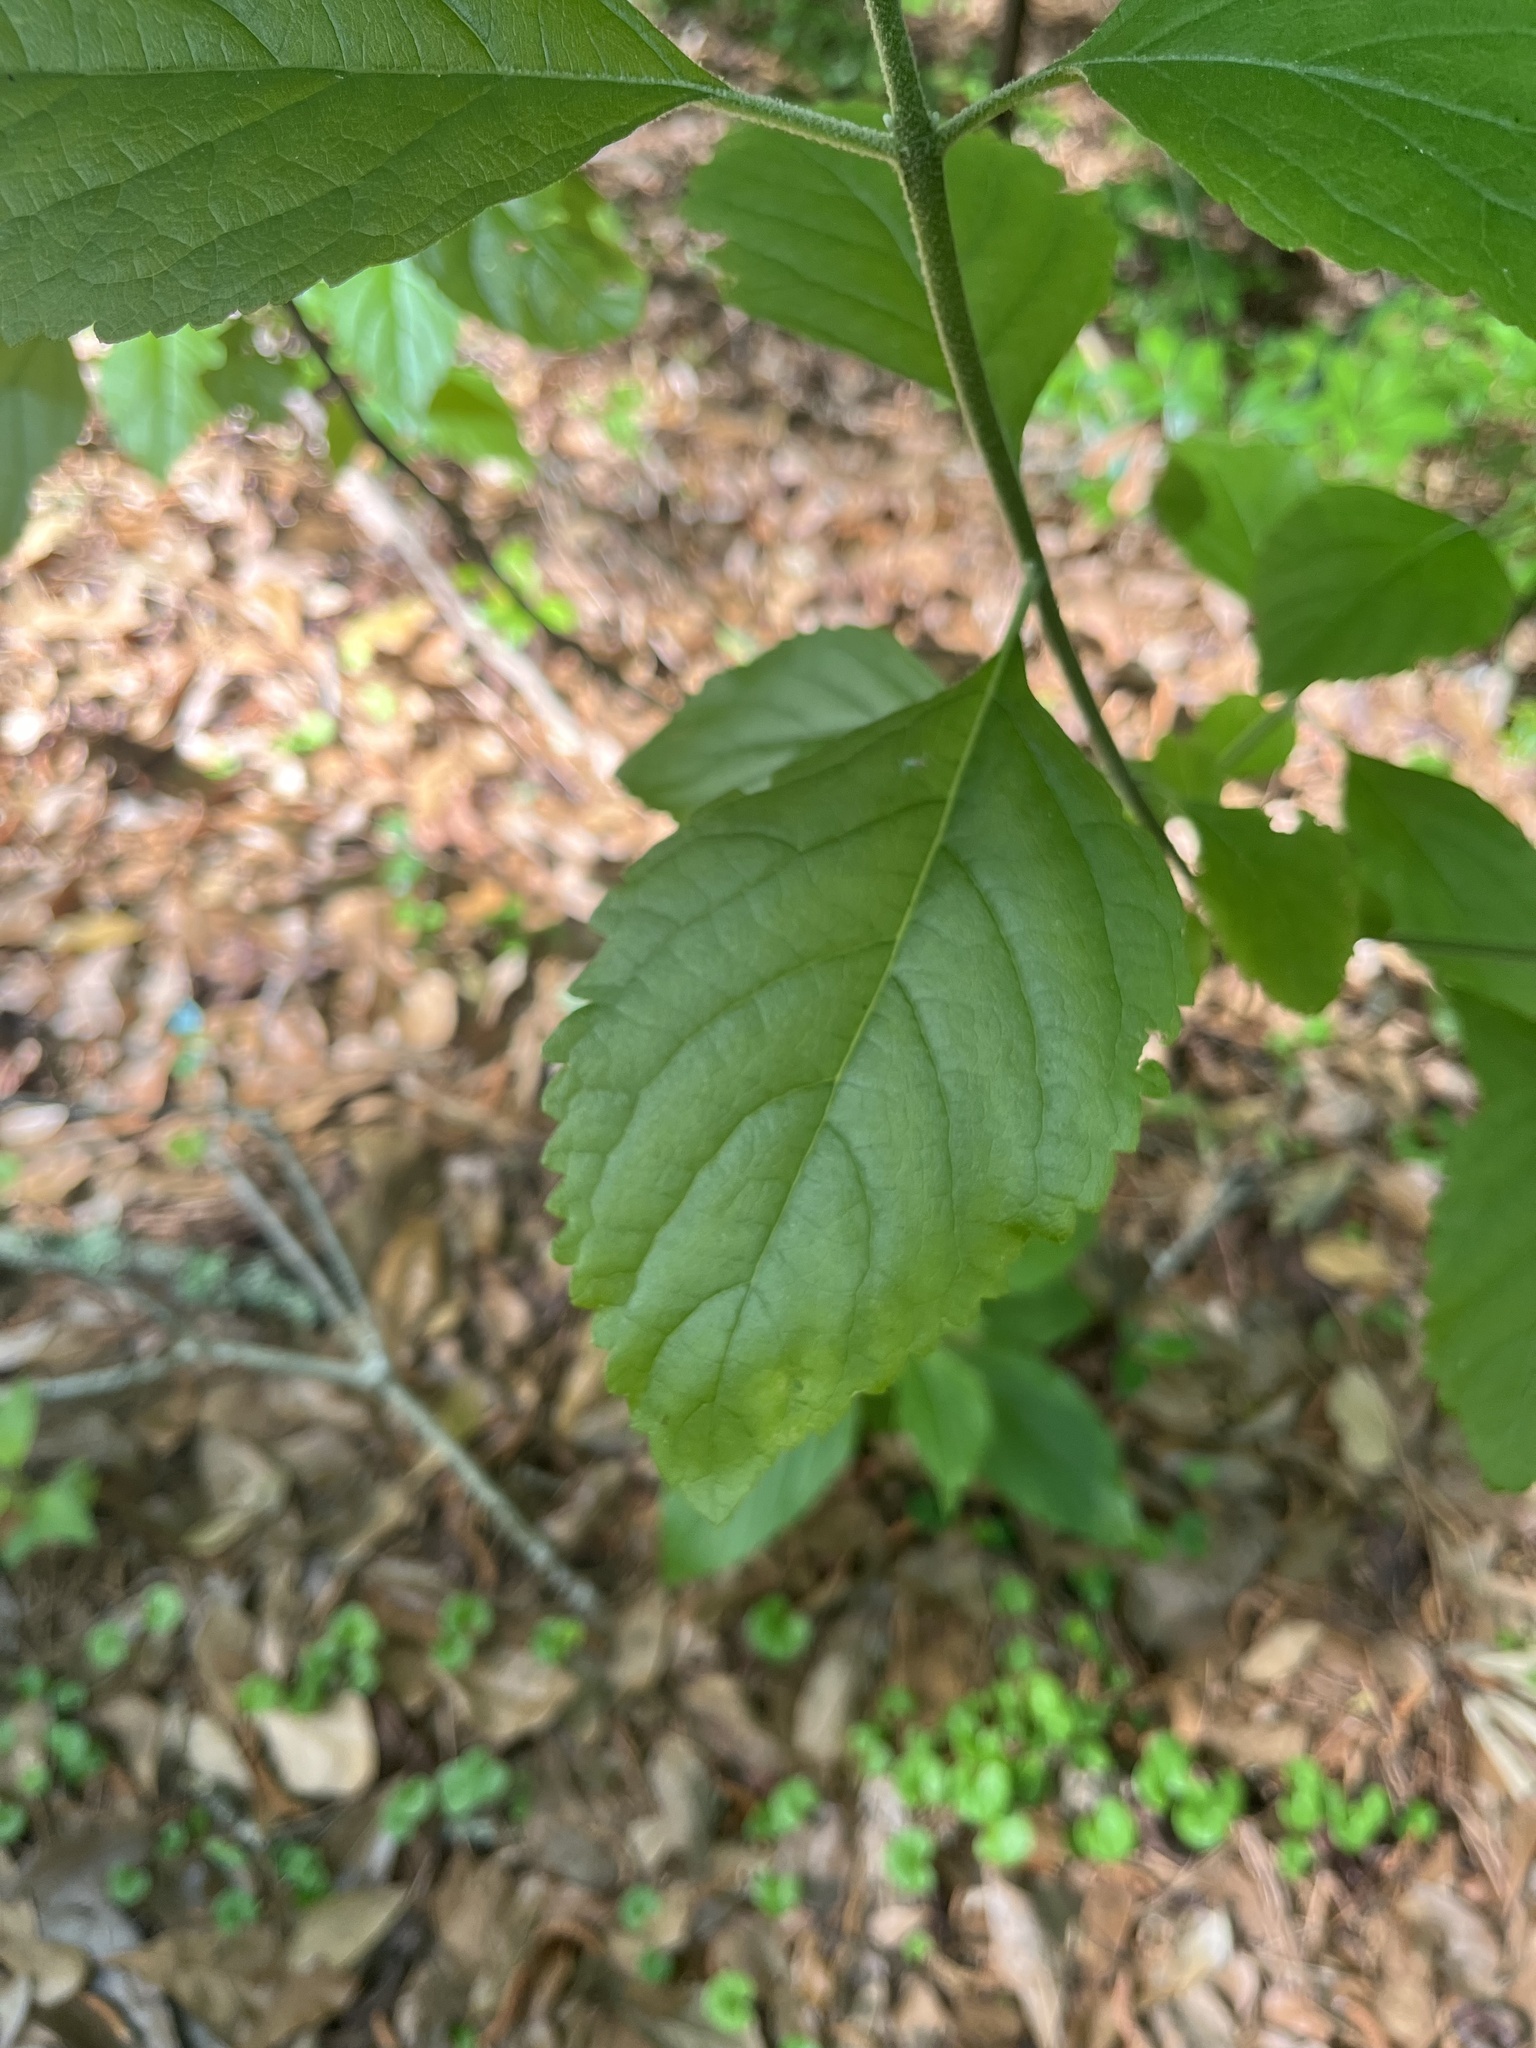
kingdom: Plantae
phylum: Tracheophyta
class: Magnoliopsida
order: Lamiales
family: Lamiaceae
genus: Callicarpa
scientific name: Callicarpa americana
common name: American beautyberry
